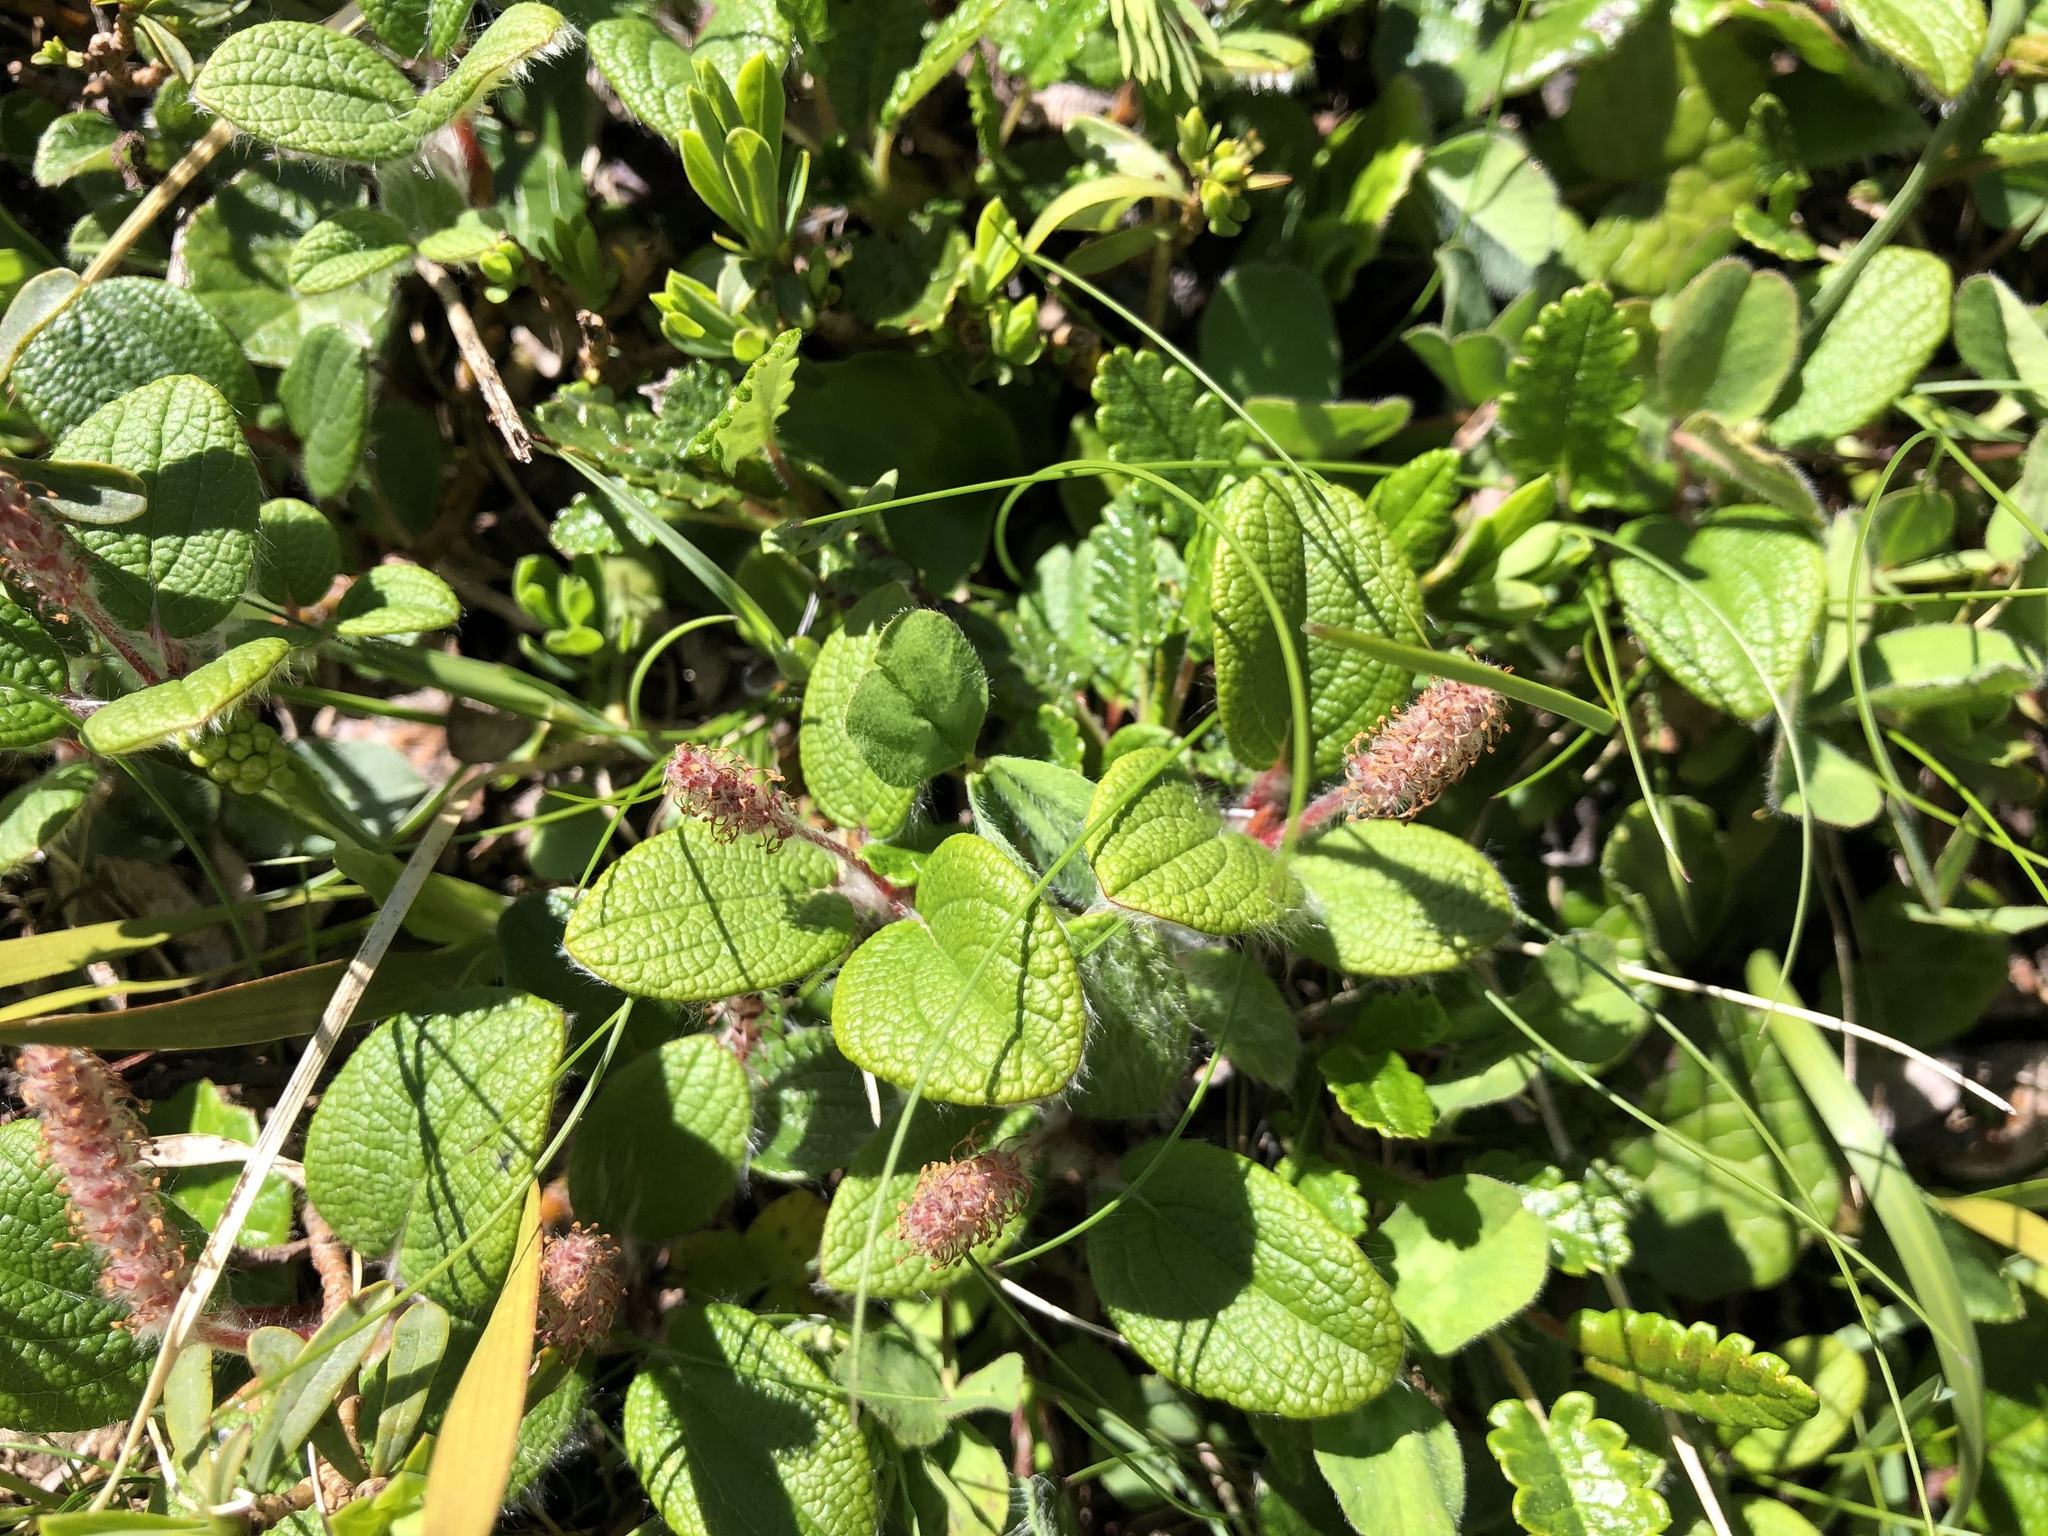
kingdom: Plantae
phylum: Tracheophyta
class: Magnoliopsida
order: Malpighiales
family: Salicaceae
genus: Salix
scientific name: Salix reticulata
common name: Net-leaved willow
